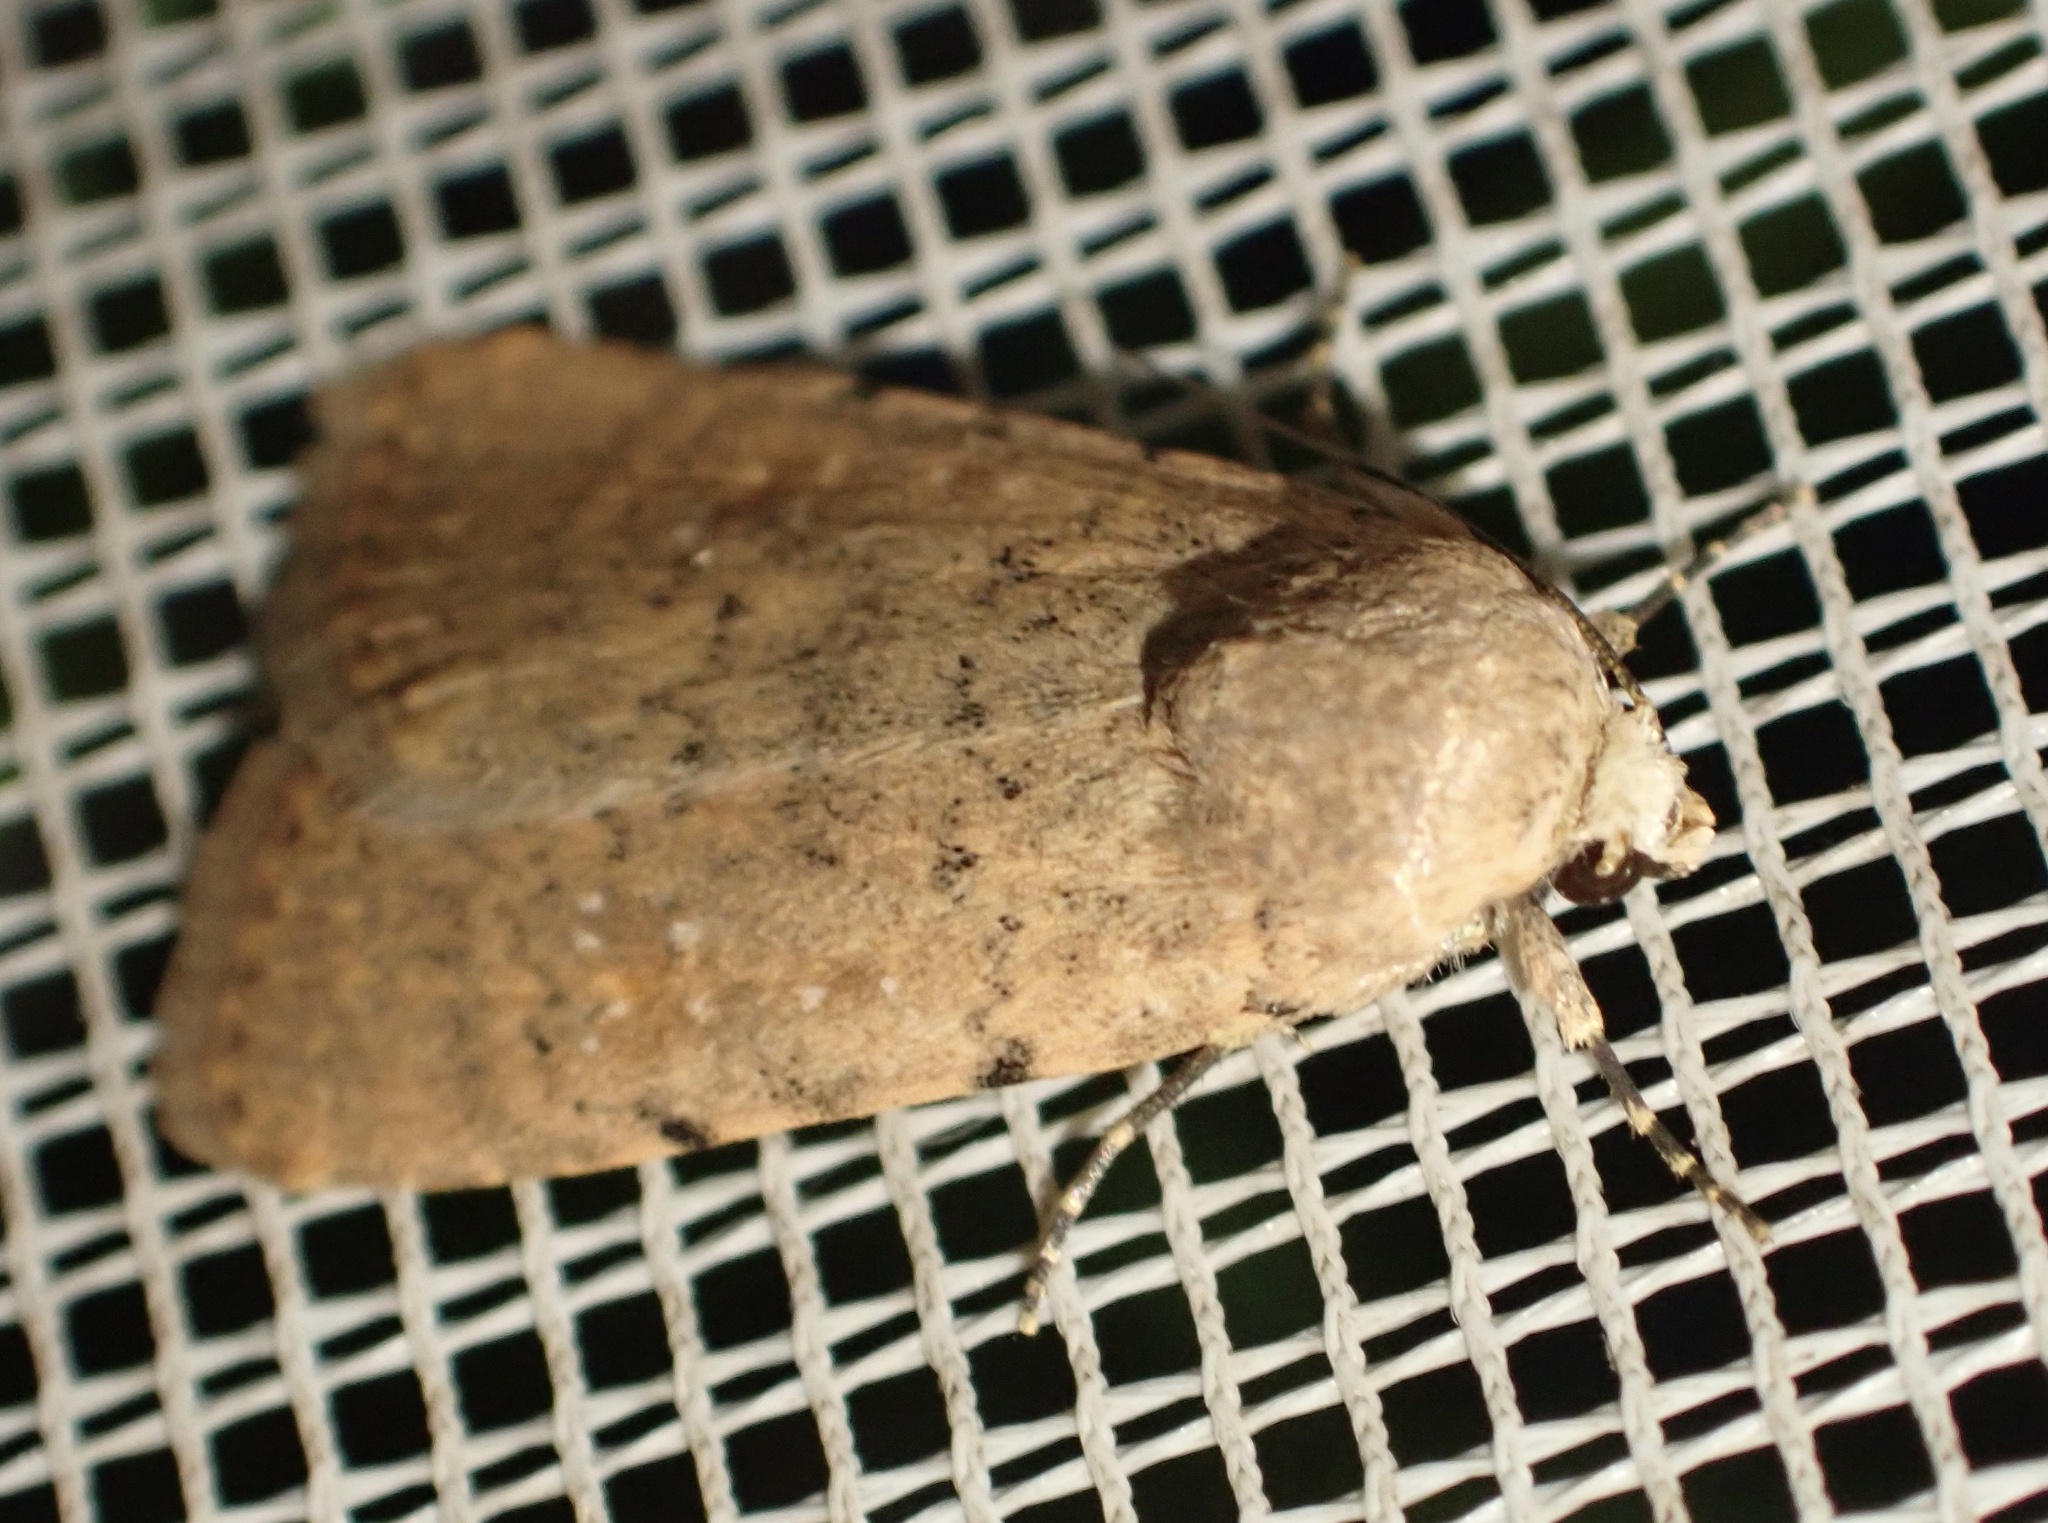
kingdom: Animalia
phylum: Arthropoda
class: Insecta
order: Lepidoptera
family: Noctuidae
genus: Caradrina
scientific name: Caradrina flava
